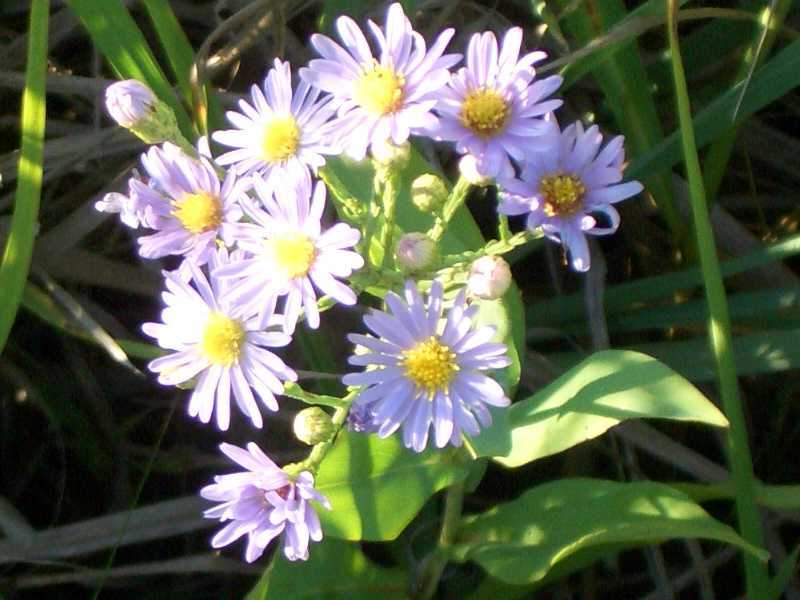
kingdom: Plantae
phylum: Tracheophyta
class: Magnoliopsida
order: Asterales
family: Asteraceae
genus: Symphyotrichum
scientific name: Symphyotrichum laeve
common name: Glaucous aster
